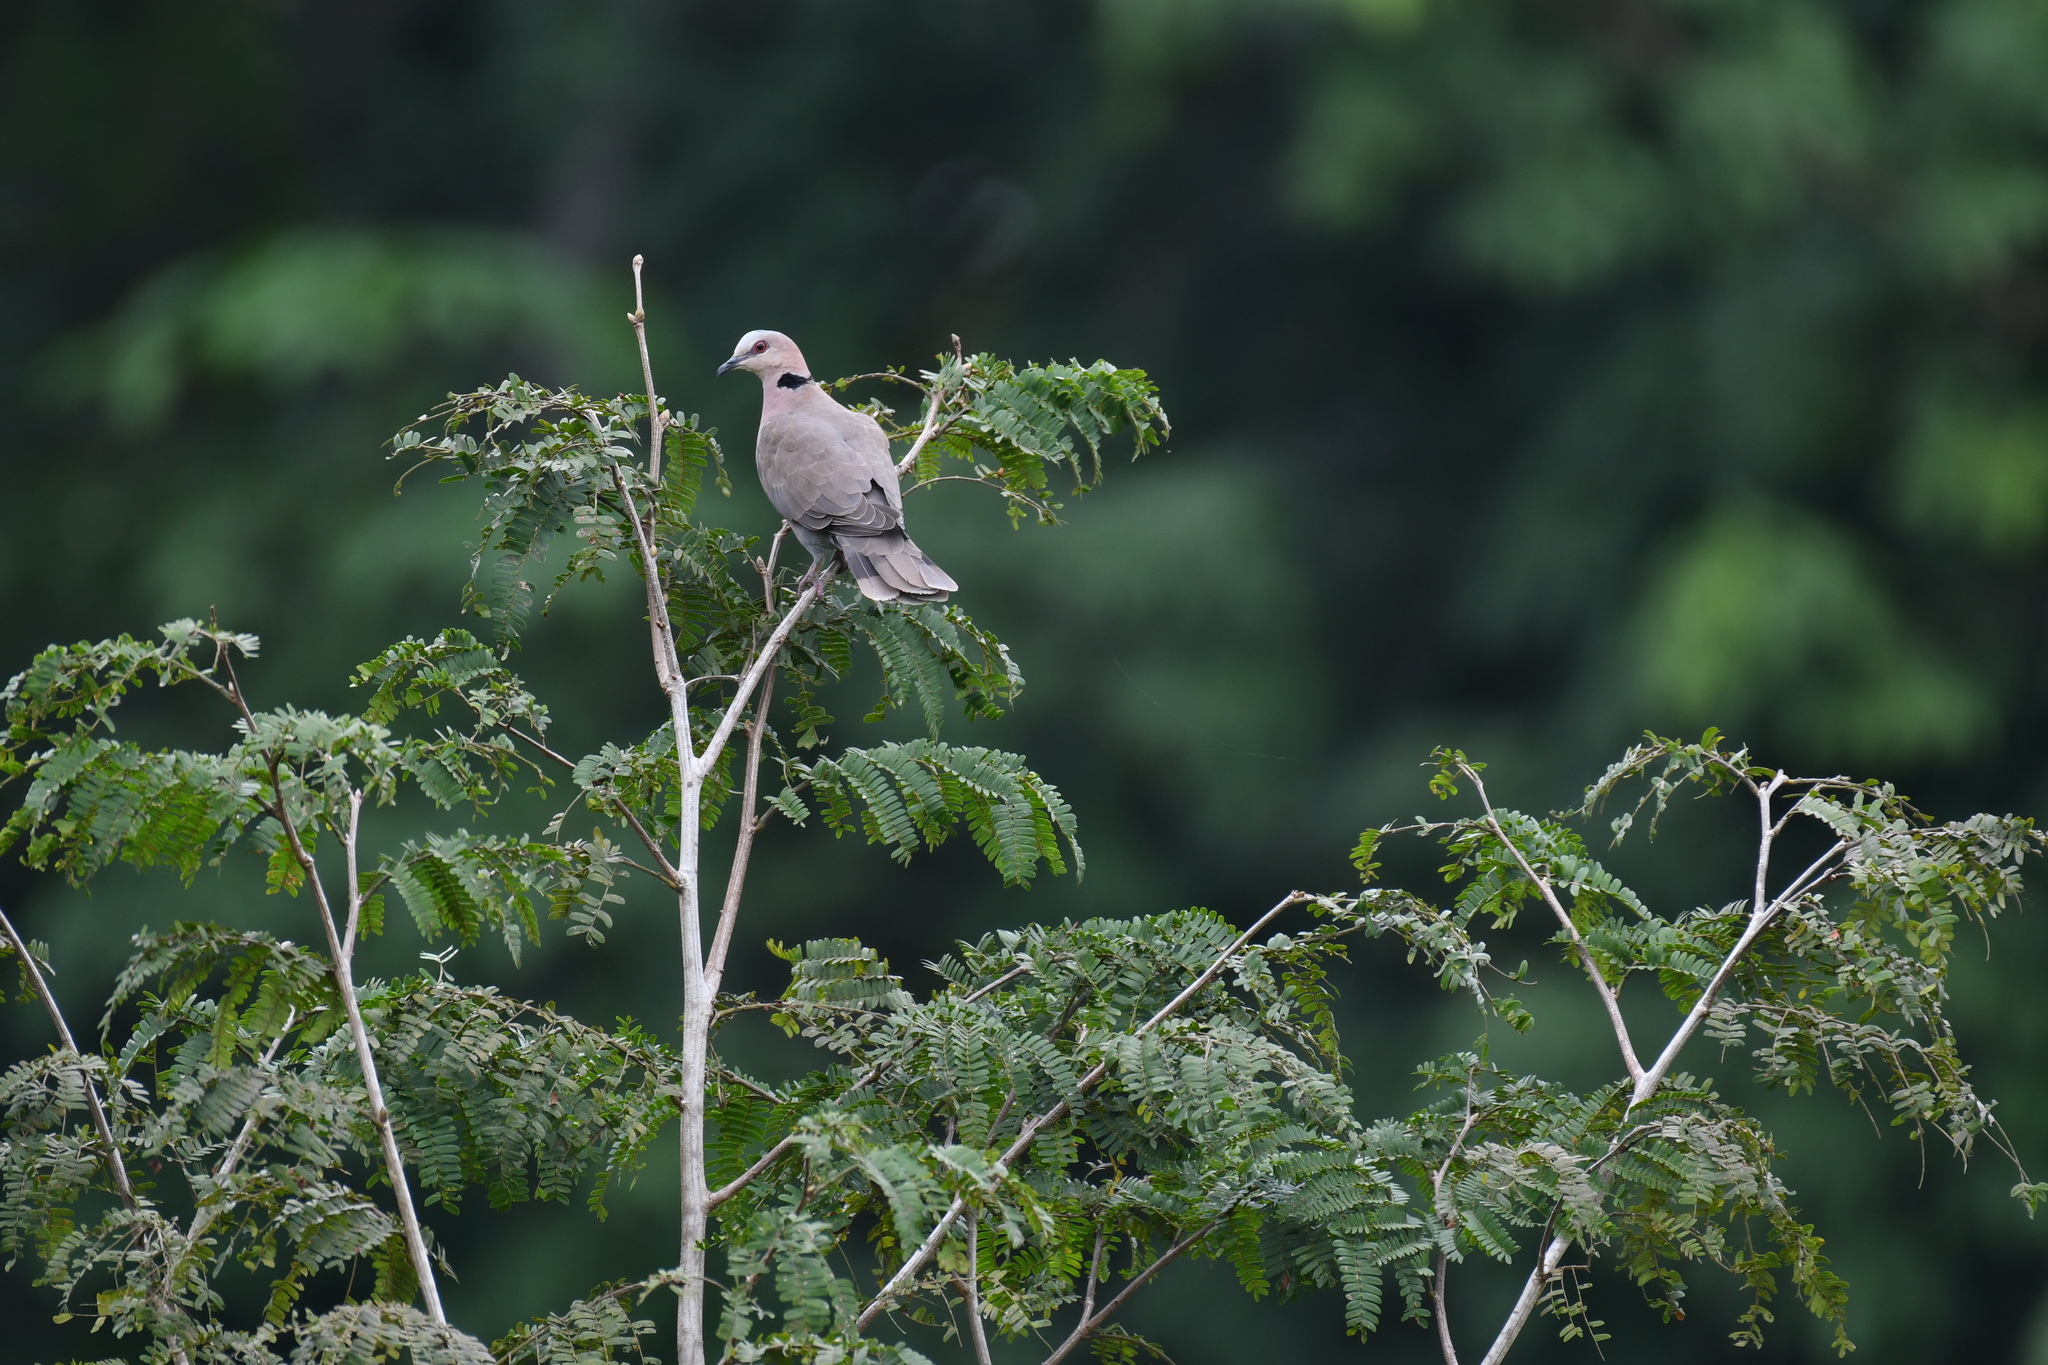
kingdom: Animalia
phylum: Chordata
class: Aves
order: Columbiformes
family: Columbidae
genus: Streptopelia
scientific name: Streptopelia semitorquata
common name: Red-eyed dove
